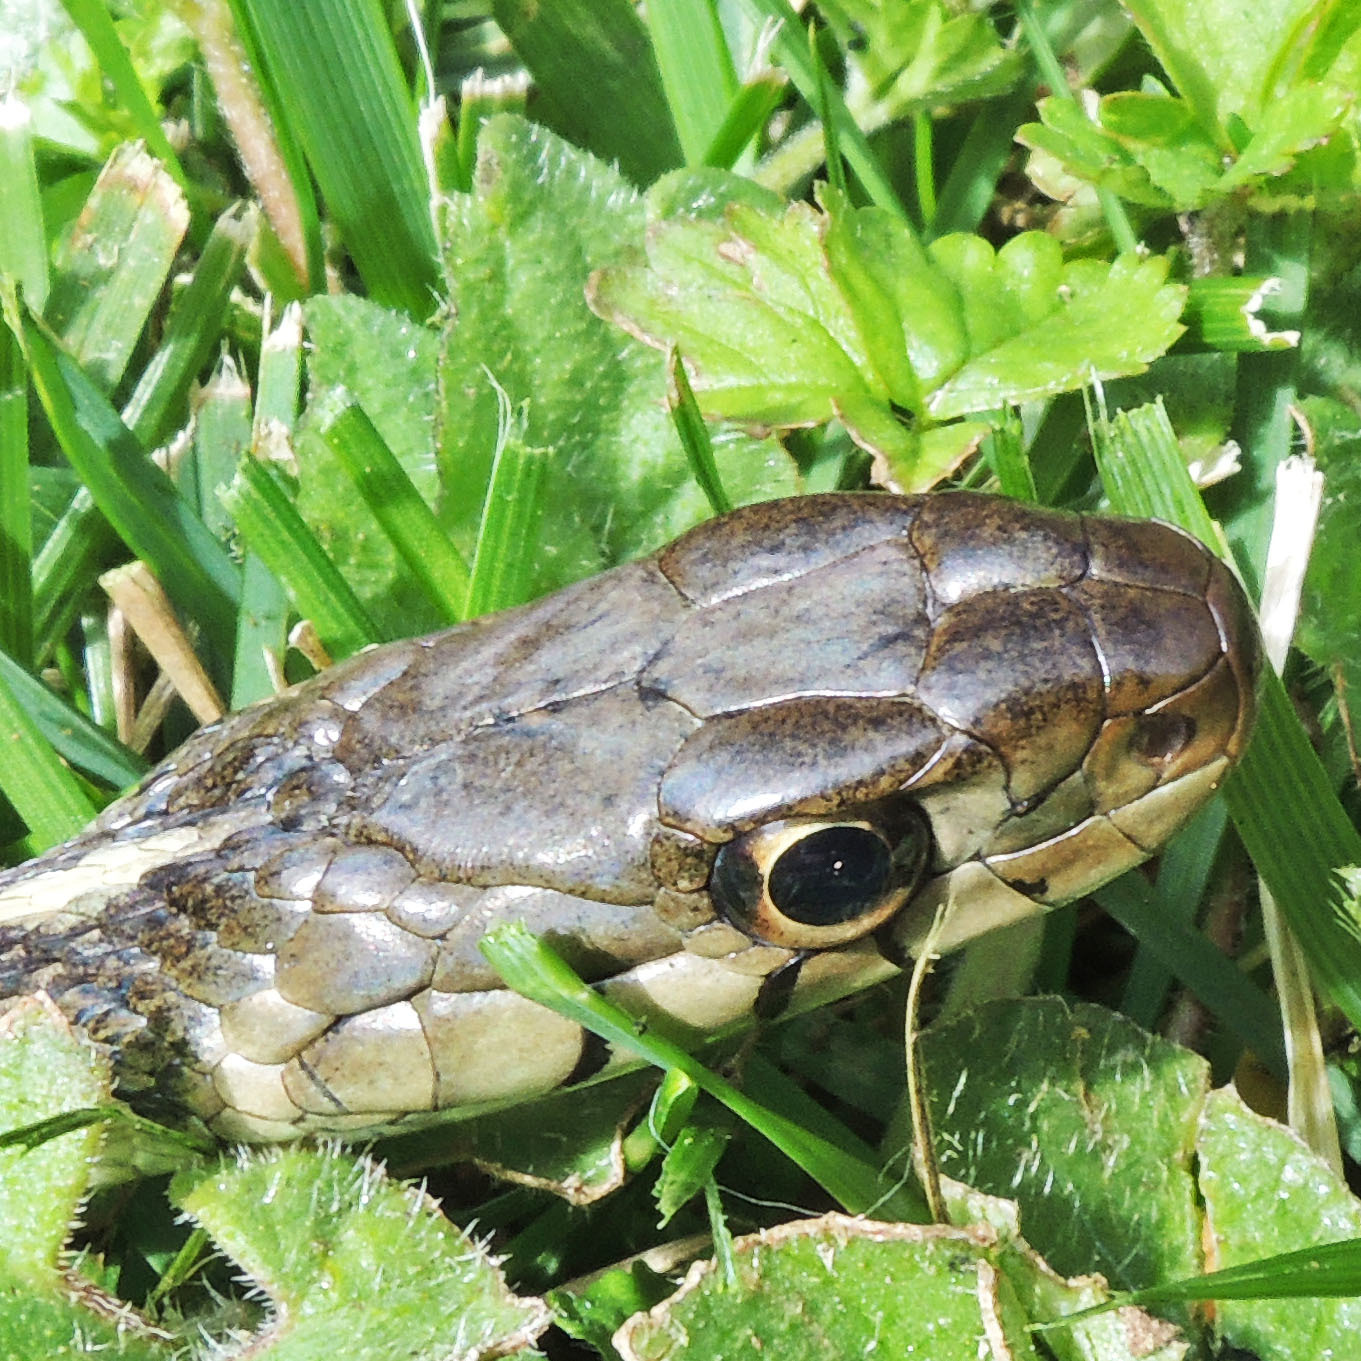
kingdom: Animalia
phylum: Chordata
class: Squamata
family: Colubridae
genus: Thamnophis
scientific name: Thamnophis sirtalis
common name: Common garter snake
